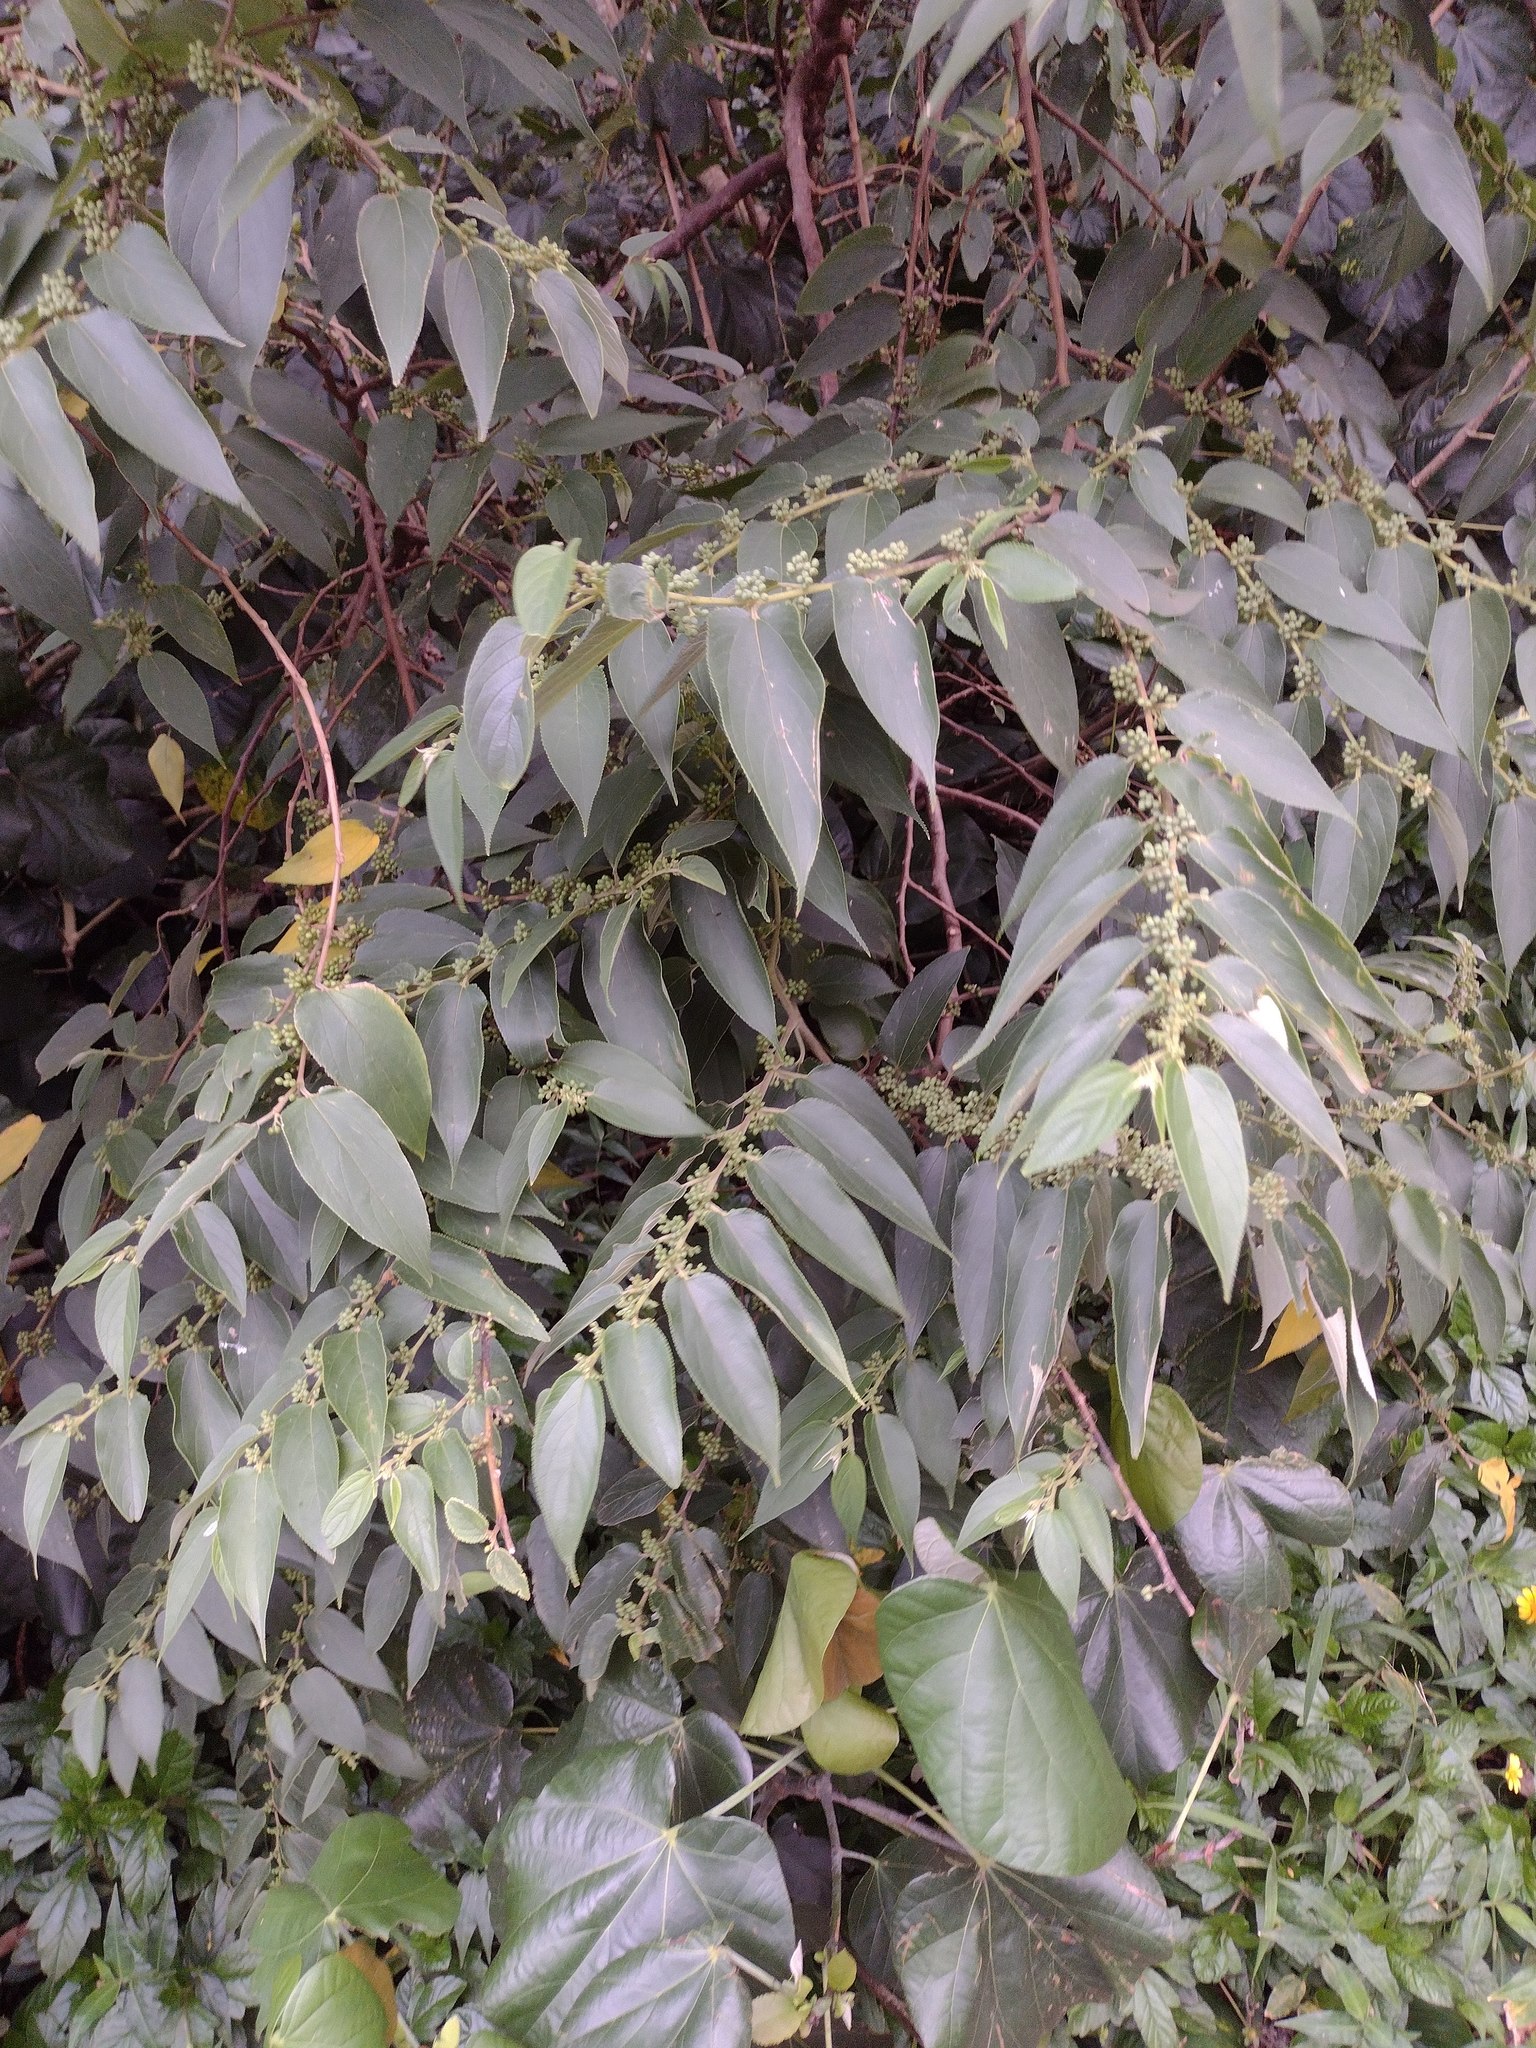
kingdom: Plantae
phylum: Tracheophyta
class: Magnoliopsida
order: Rosales
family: Cannabaceae
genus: Trema
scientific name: Trema orientale
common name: Indian charcoal tree
